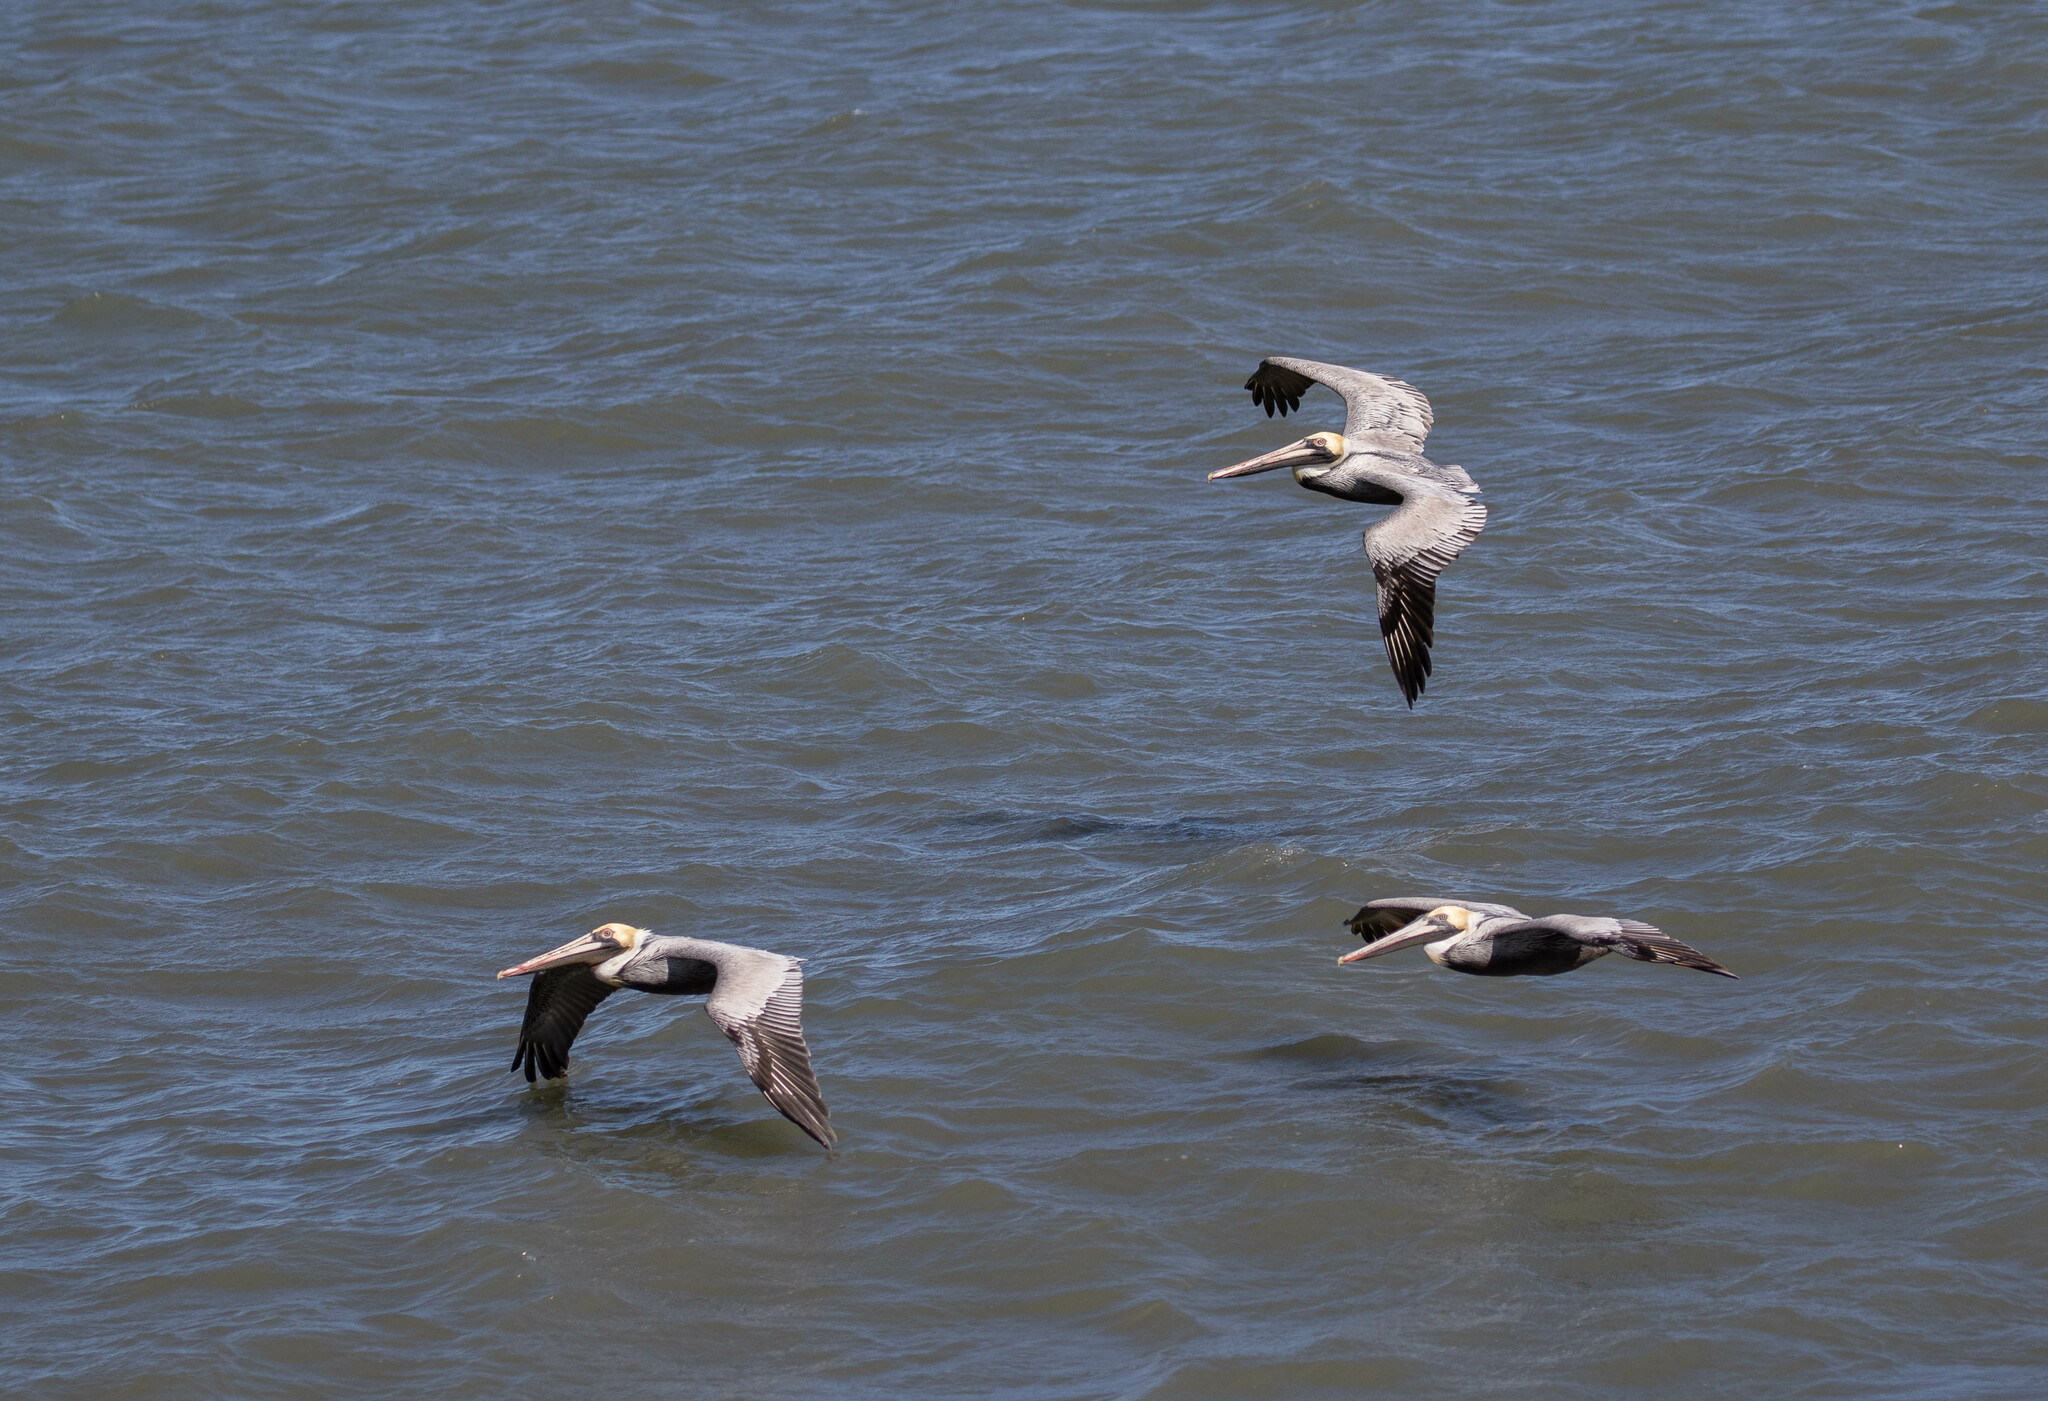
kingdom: Animalia
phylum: Chordata
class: Aves
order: Pelecaniformes
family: Pelecanidae
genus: Pelecanus
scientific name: Pelecanus occidentalis
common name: Brown pelican
